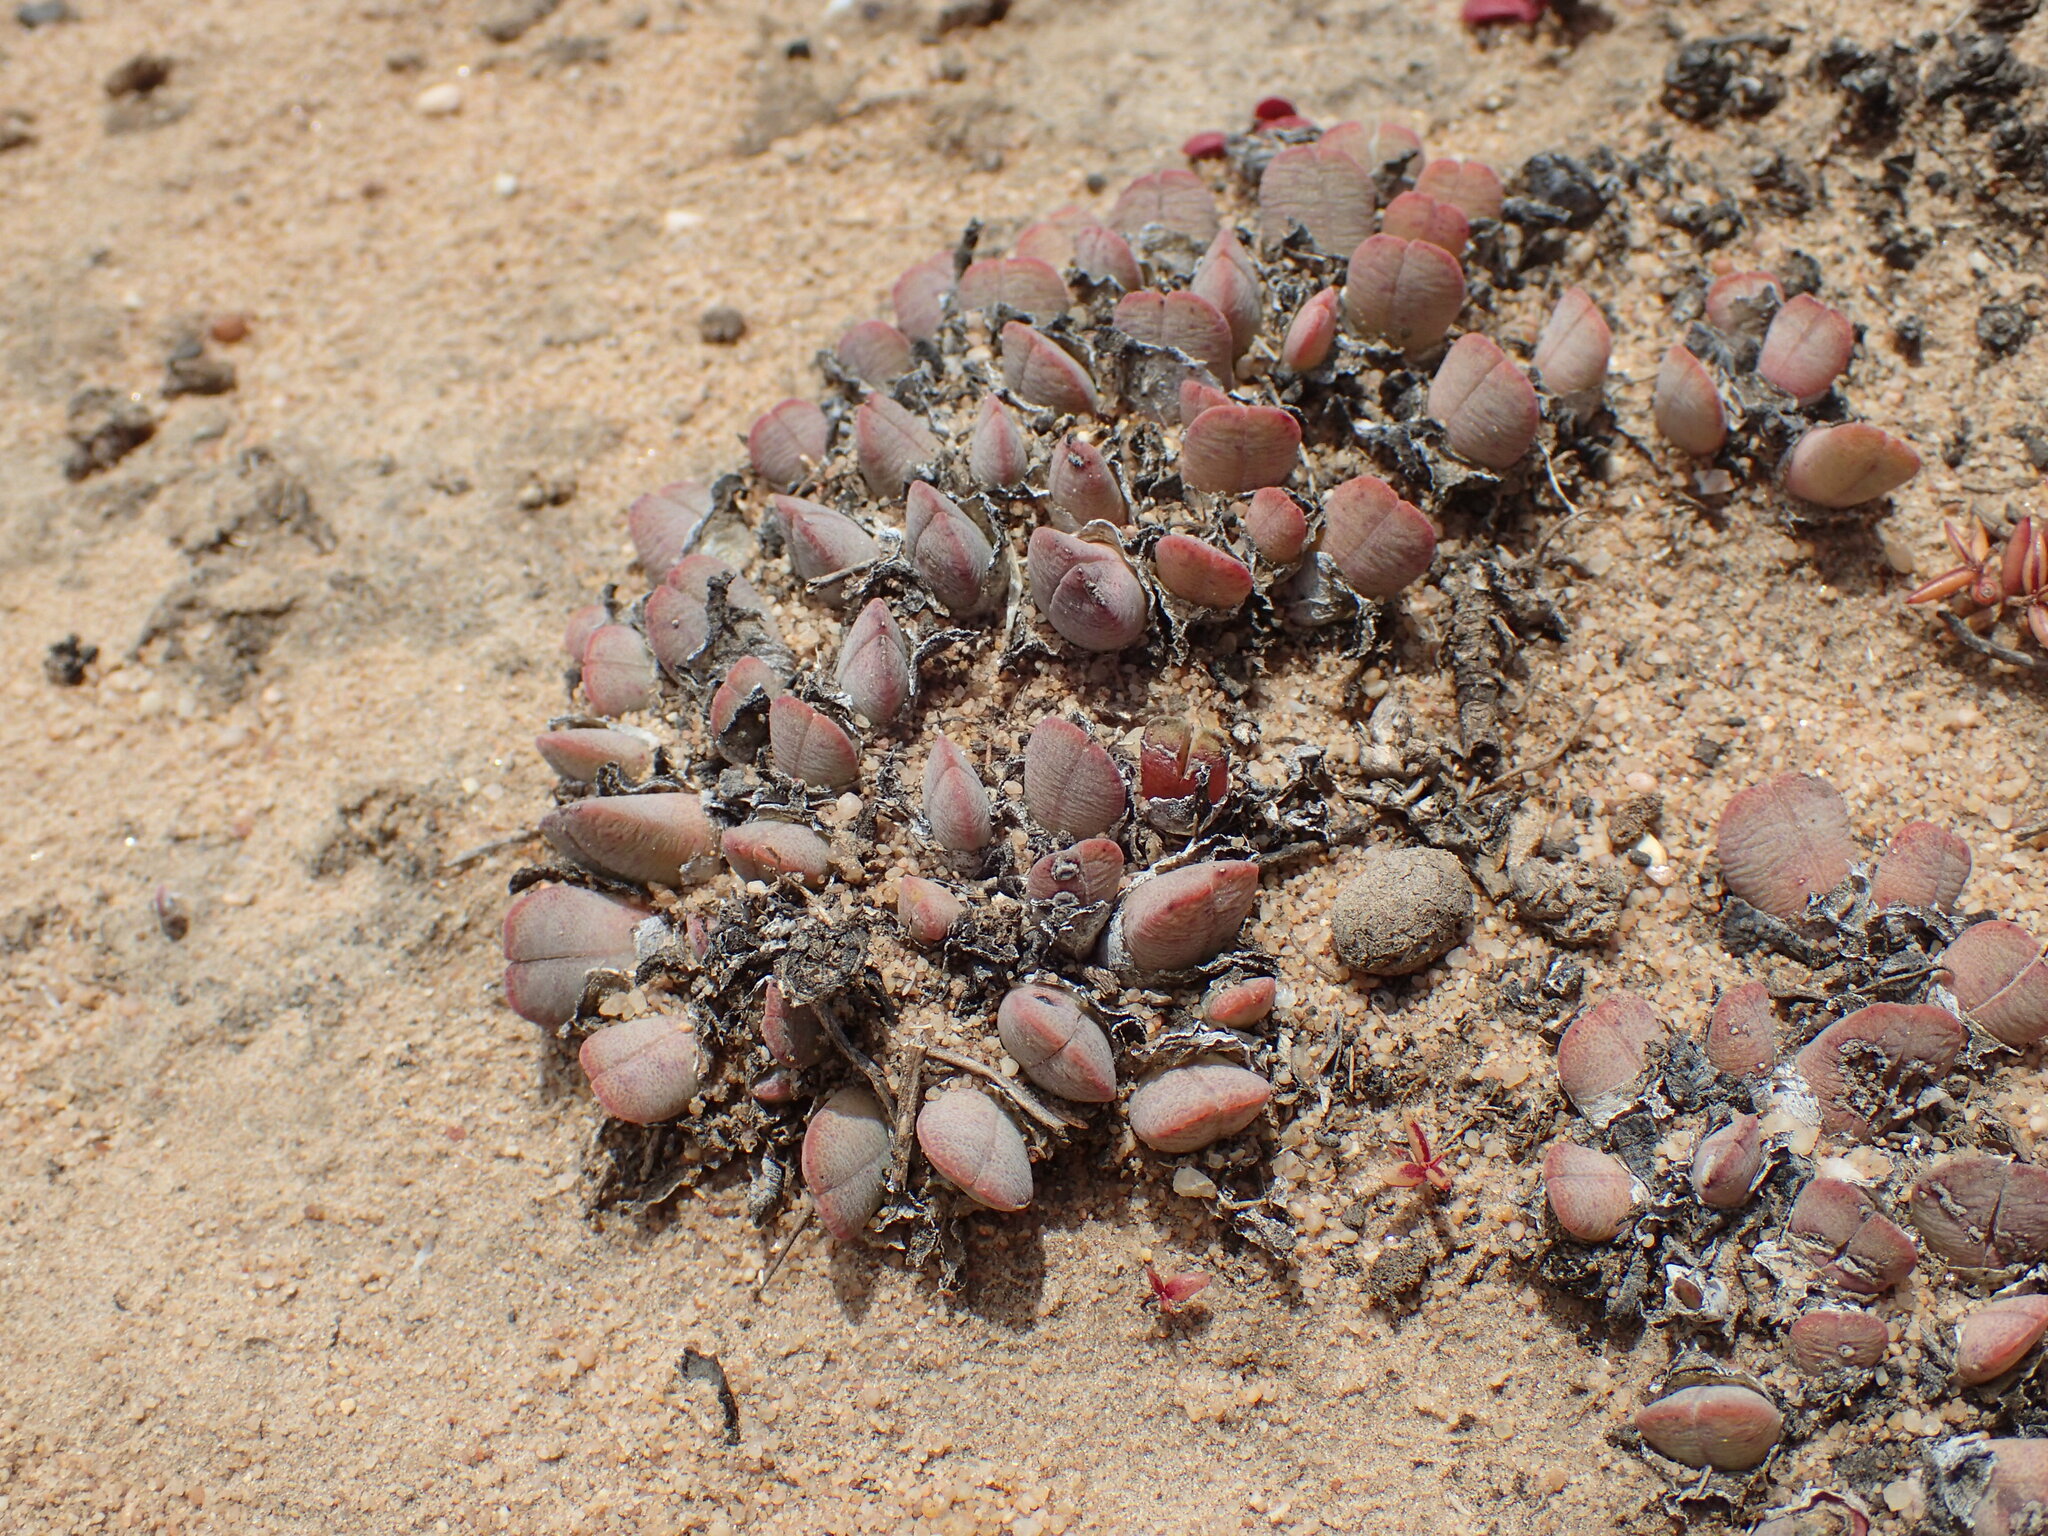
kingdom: Plantae
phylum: Tracheophyta
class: Magnoliopsida
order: Caryophyllales
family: Aizoaceae
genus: Cheiridopsis
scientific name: Cheiridopsis rostrata
